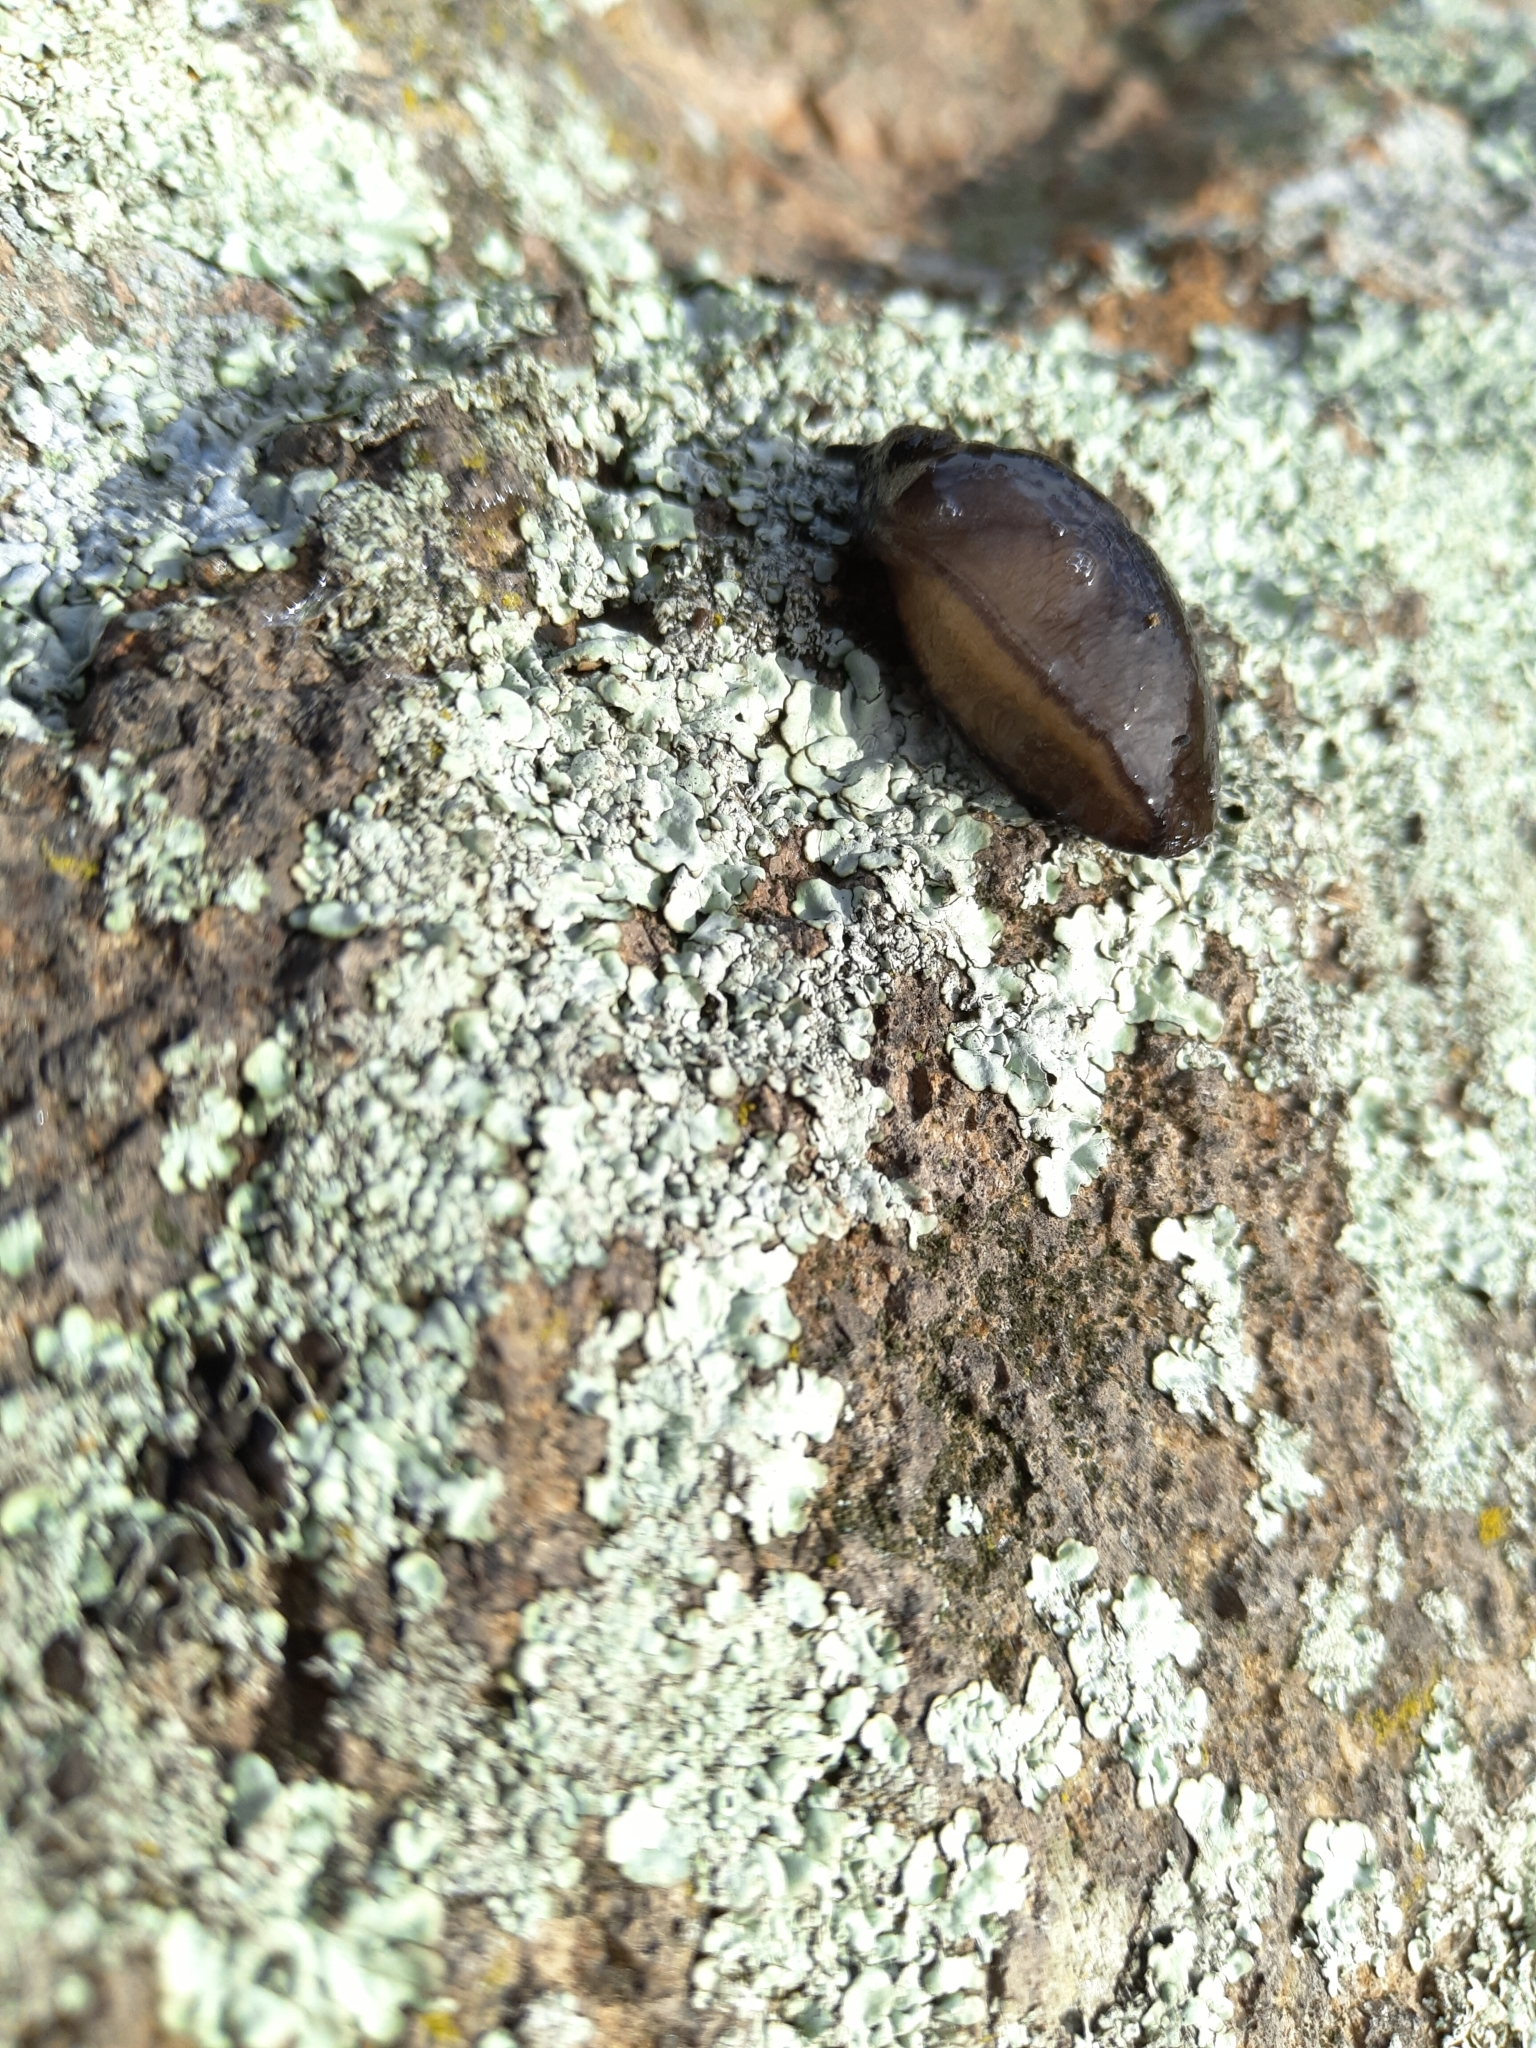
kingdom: Animalia
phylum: Mollusca
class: Gastropoda
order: Stylommatophora
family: Milacidae
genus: Milax
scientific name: Milax gagates
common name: Greenhouse slug
